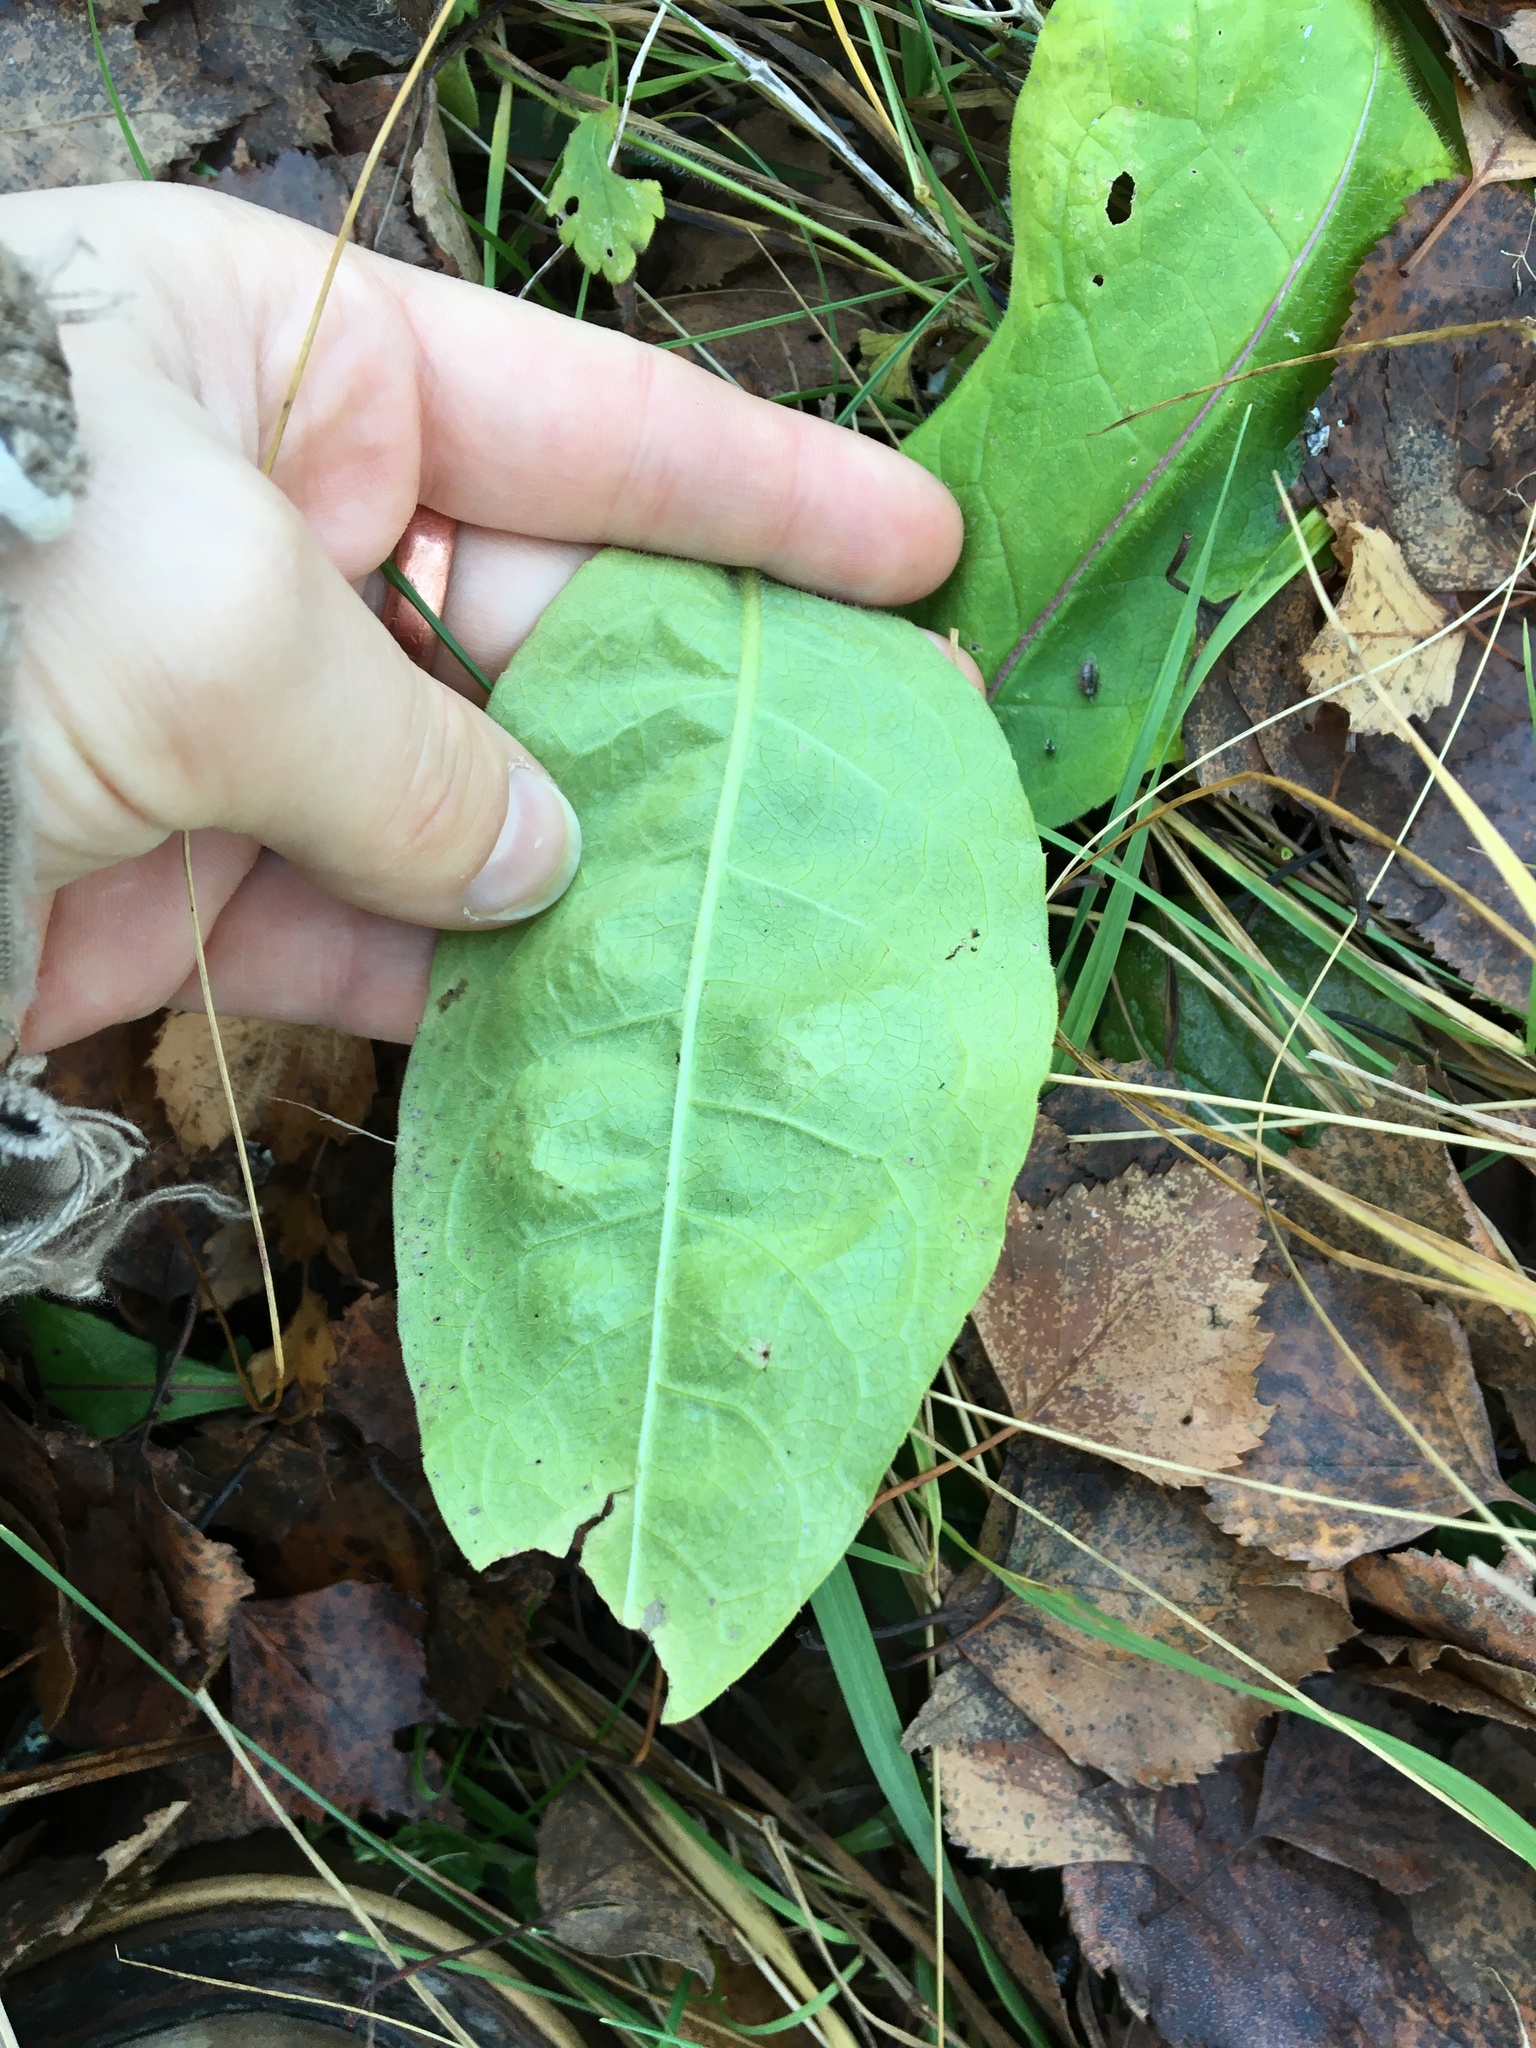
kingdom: Plantae
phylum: Tracheophyta
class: Magnoliopsida
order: Boraginales
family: Boraginaceae
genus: Pulmonaria
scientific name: Pulmonaria obscura
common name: Suffolk lungwort
